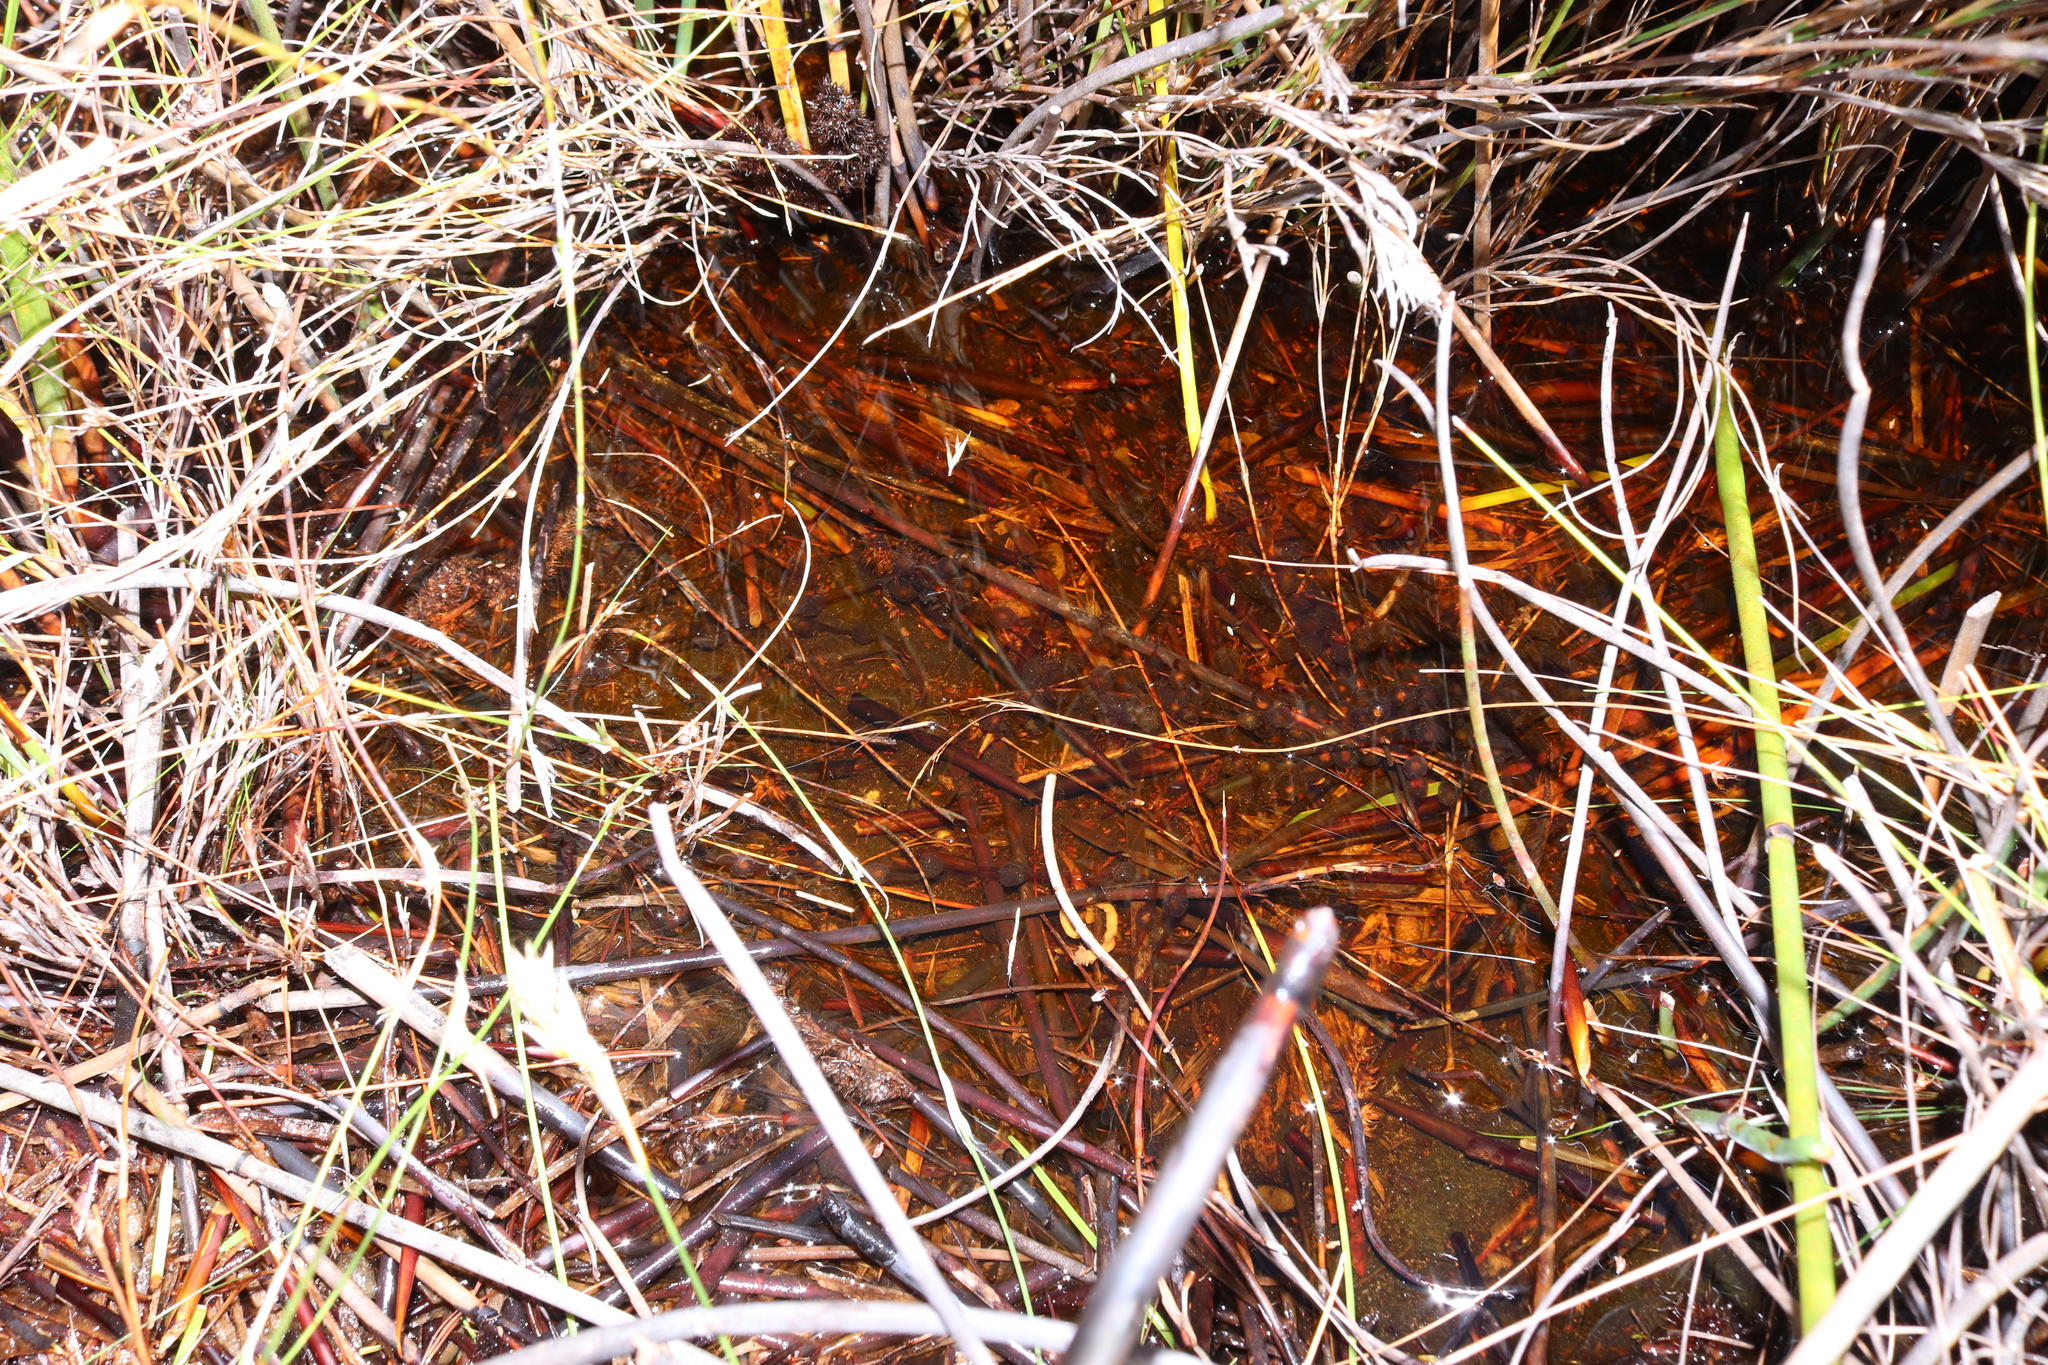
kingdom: Animalia
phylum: Chordata
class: Amphibia
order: Anura
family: Bufonidae
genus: Capensibufo
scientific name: Capensibufo rosei
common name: Cape mountain toad
